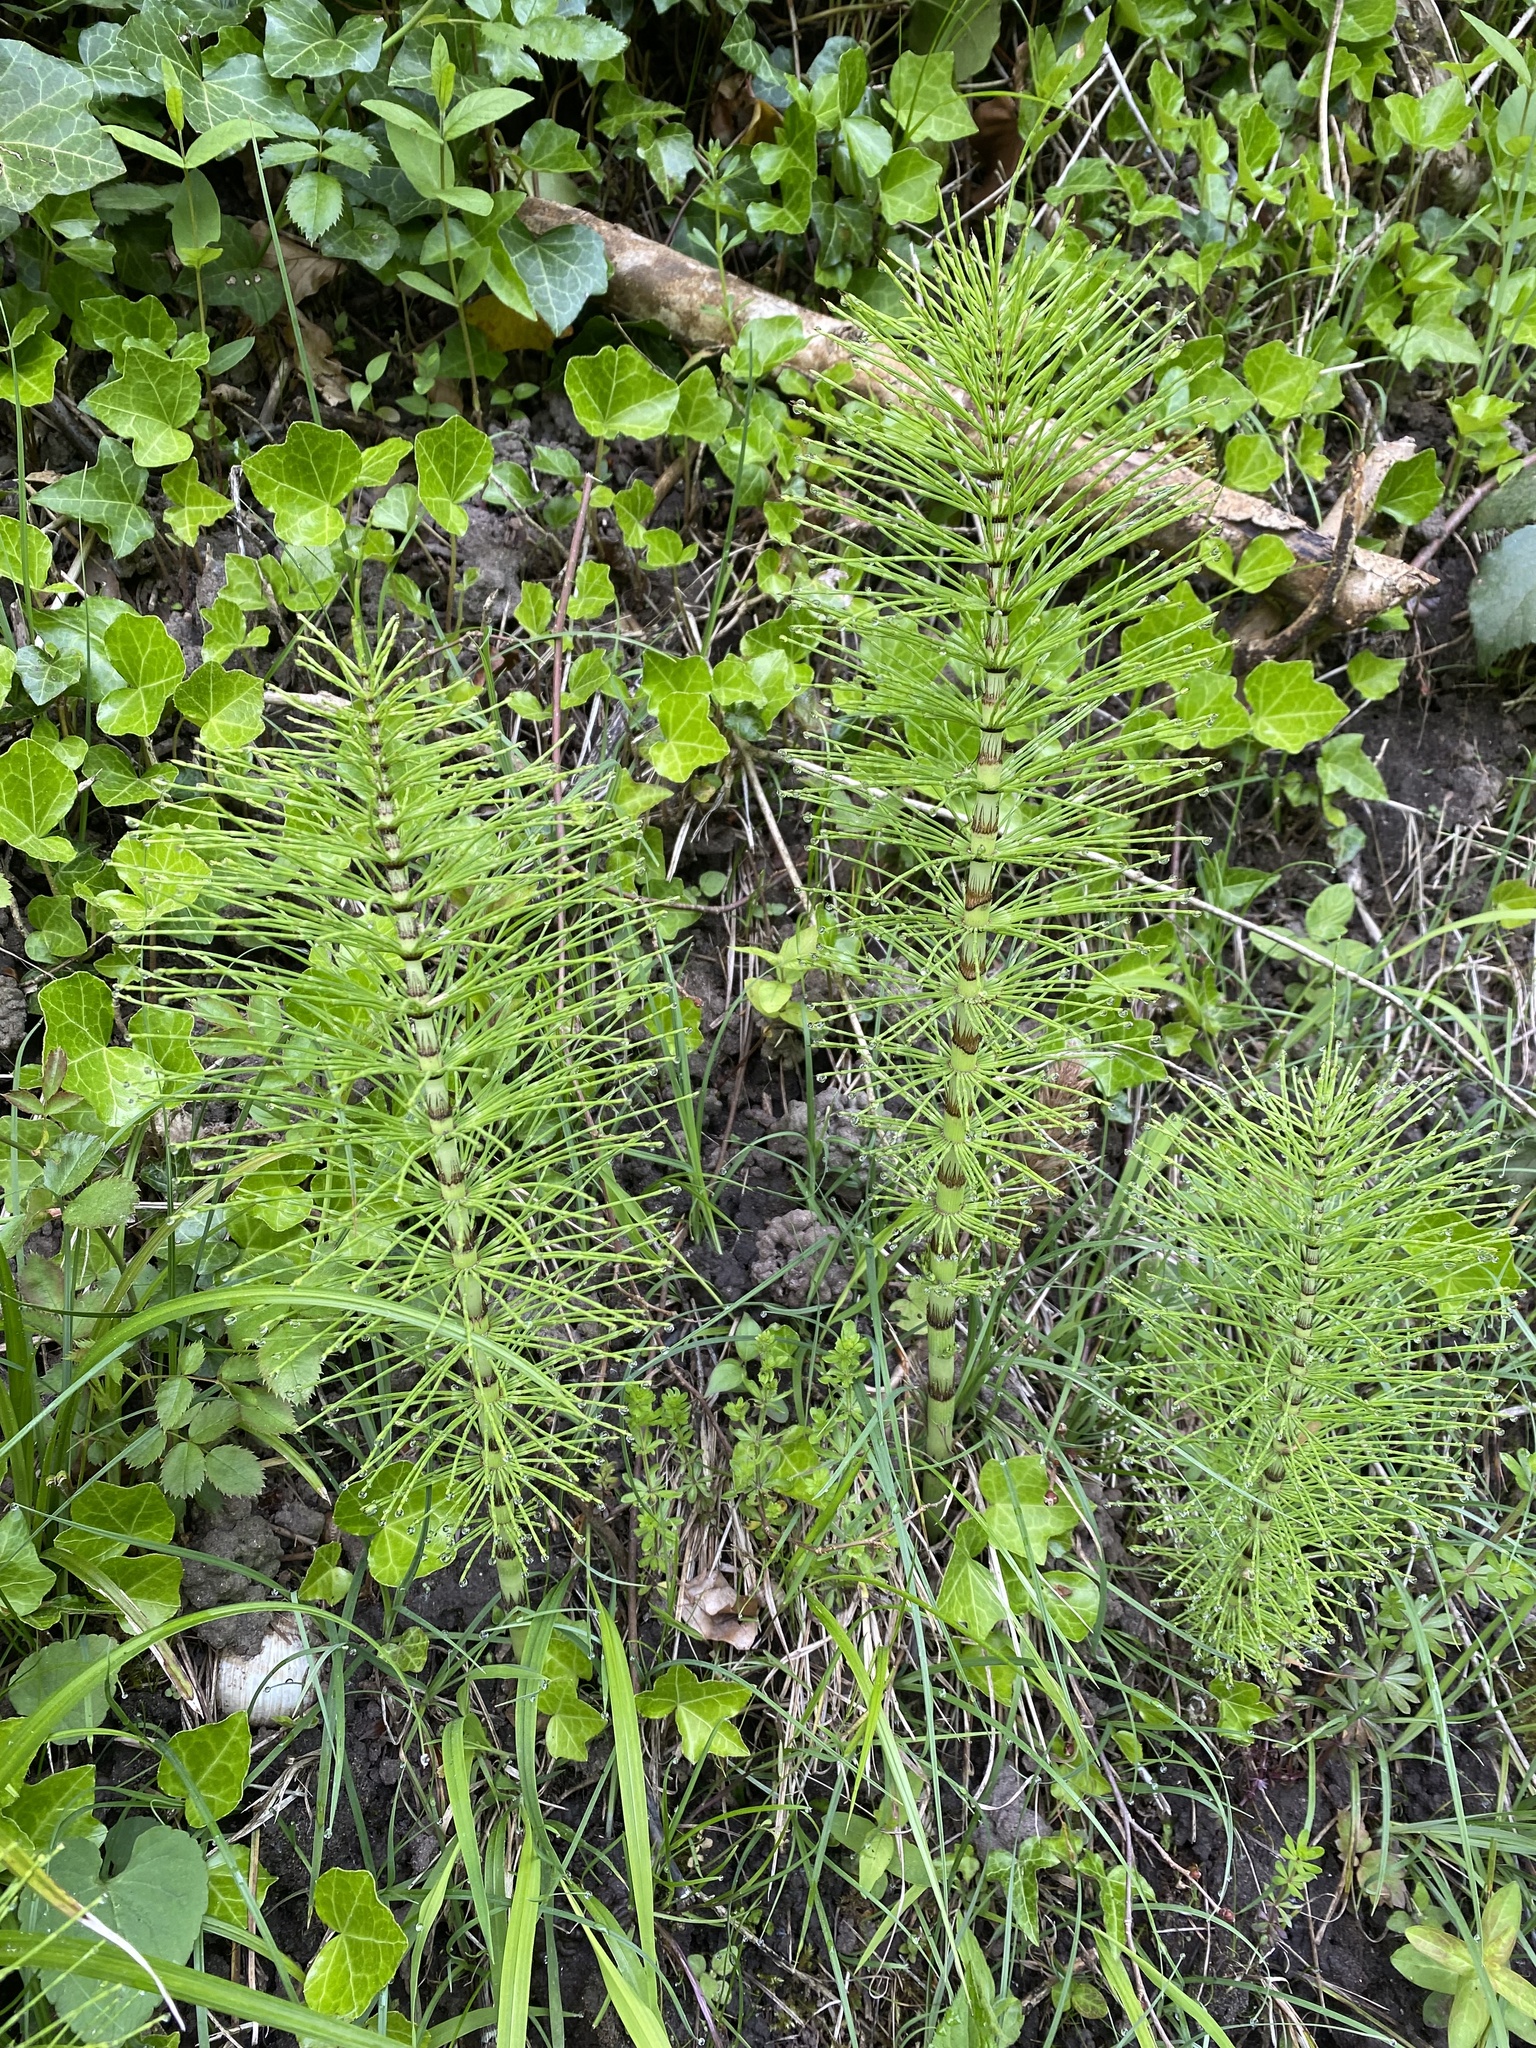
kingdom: Plantae
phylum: Tracheophyta
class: Polypodiopsida
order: Equisetales
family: Equisetaceae
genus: Equisetum
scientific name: Equisetum telmateia
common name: Great horsetail
